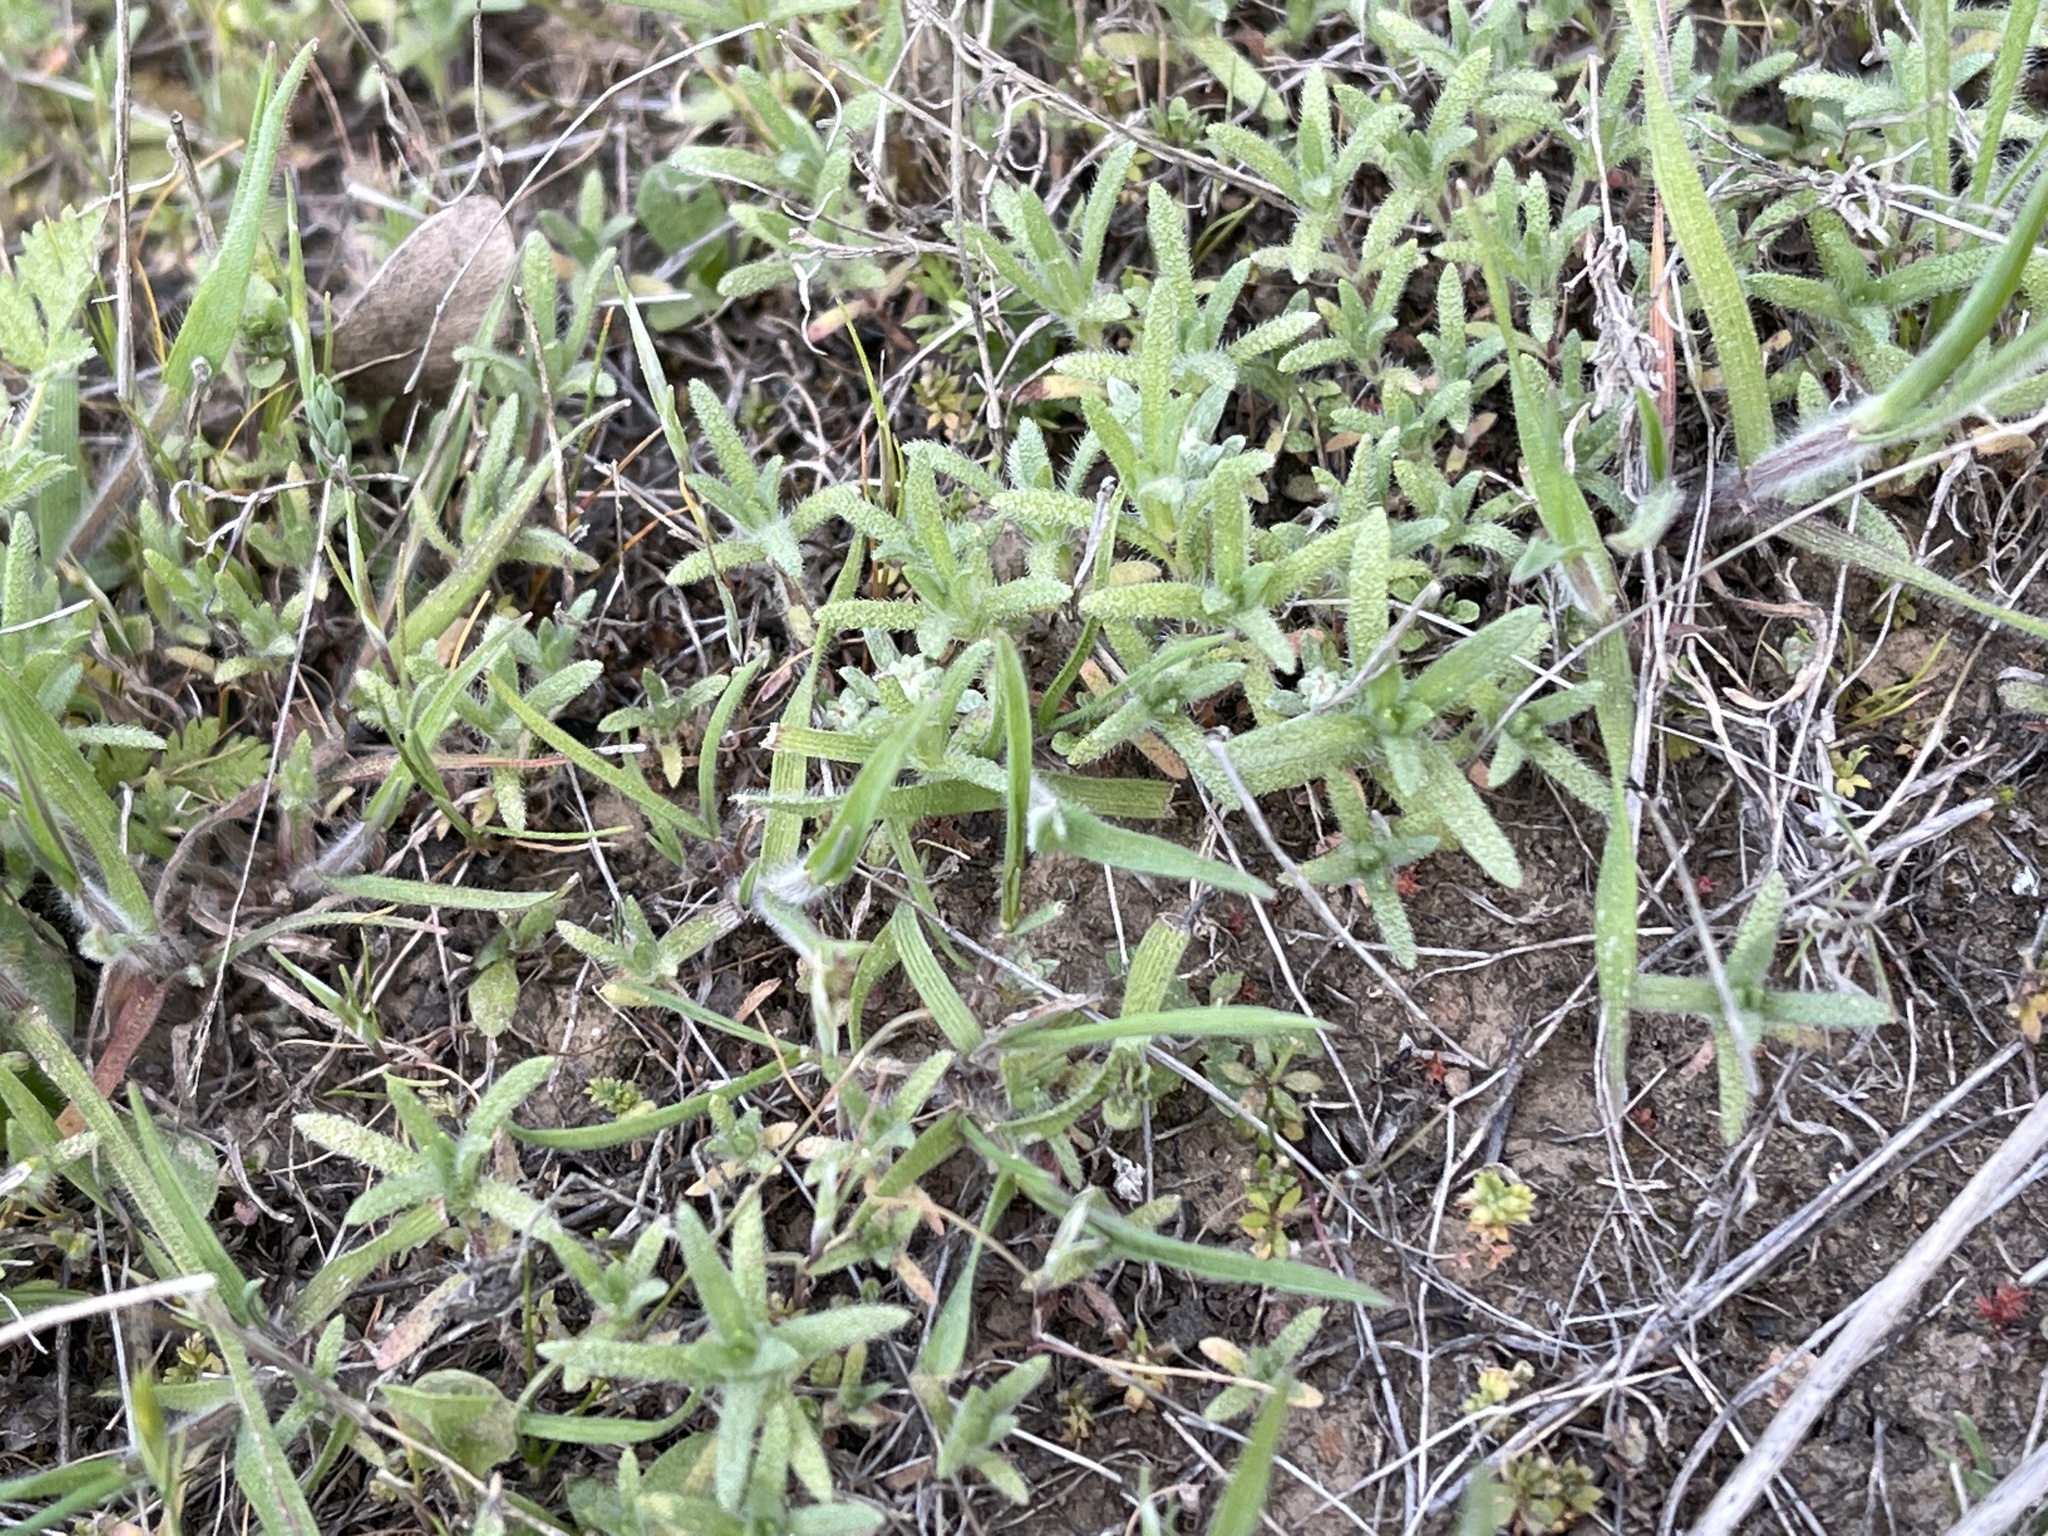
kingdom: Plantae
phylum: Tracheophyta
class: Magnoliopsida
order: Asterales
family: Asteraceae
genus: Hemizonella
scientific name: Hemizonella minima
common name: Opposite-leaved tarweed
